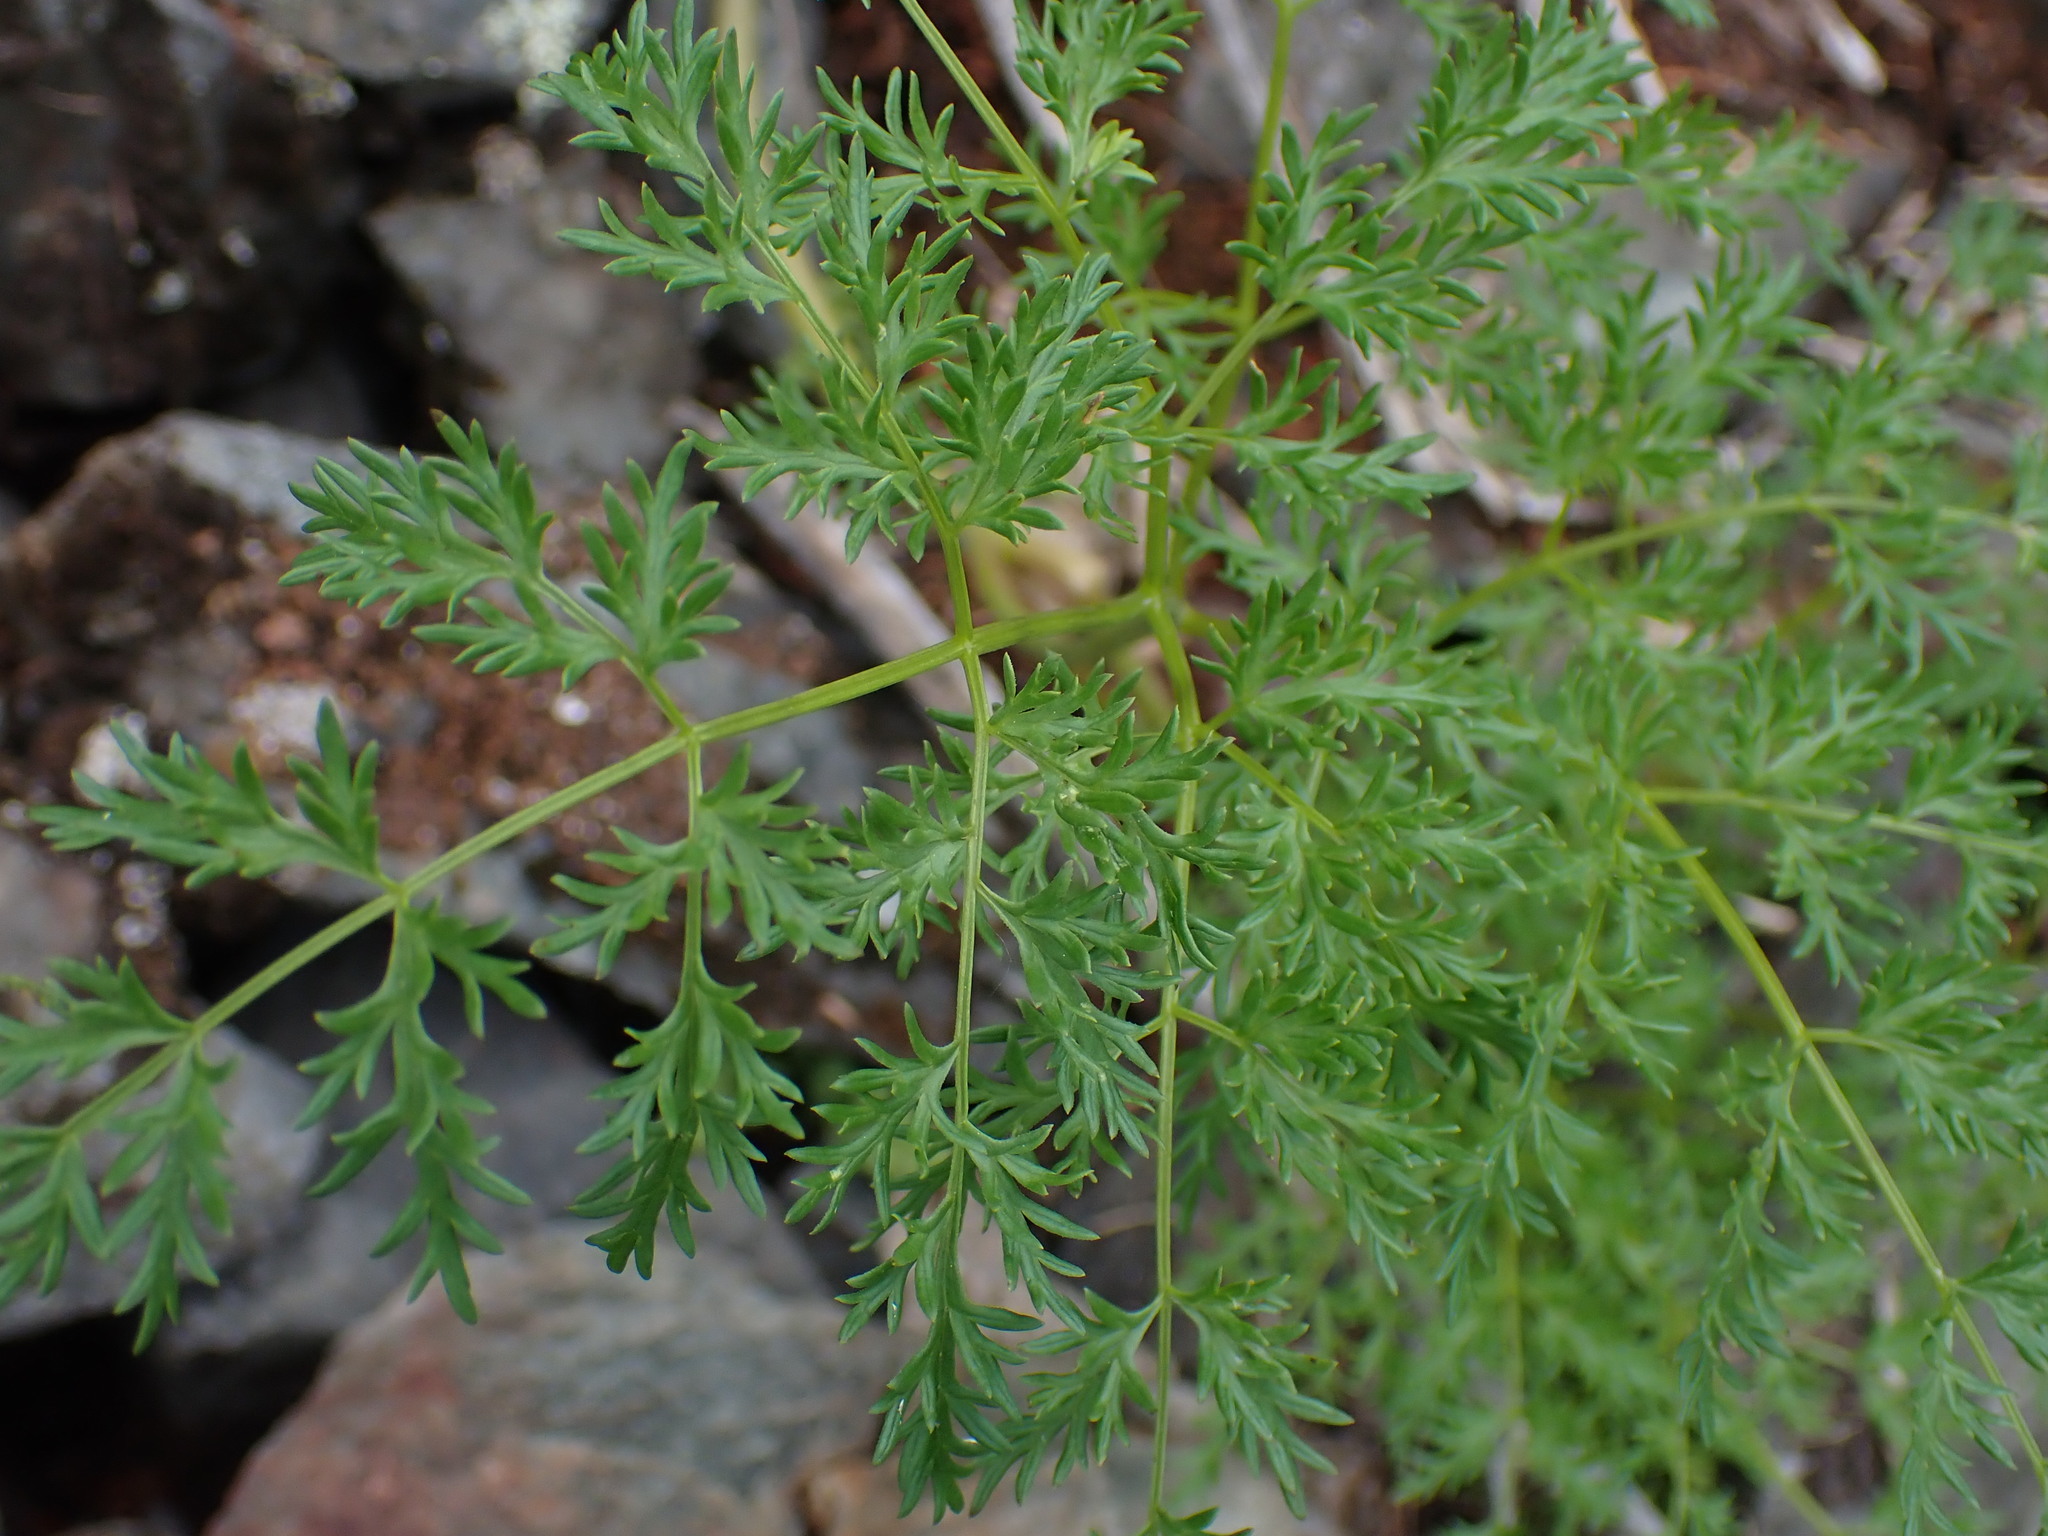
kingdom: Plantae
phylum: Tracheophyta
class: Magnoliopsida
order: Apiales
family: Apiaceae
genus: Lomatium
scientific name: Lomatium multifidum
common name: Carrot-leaved biscuitroot
